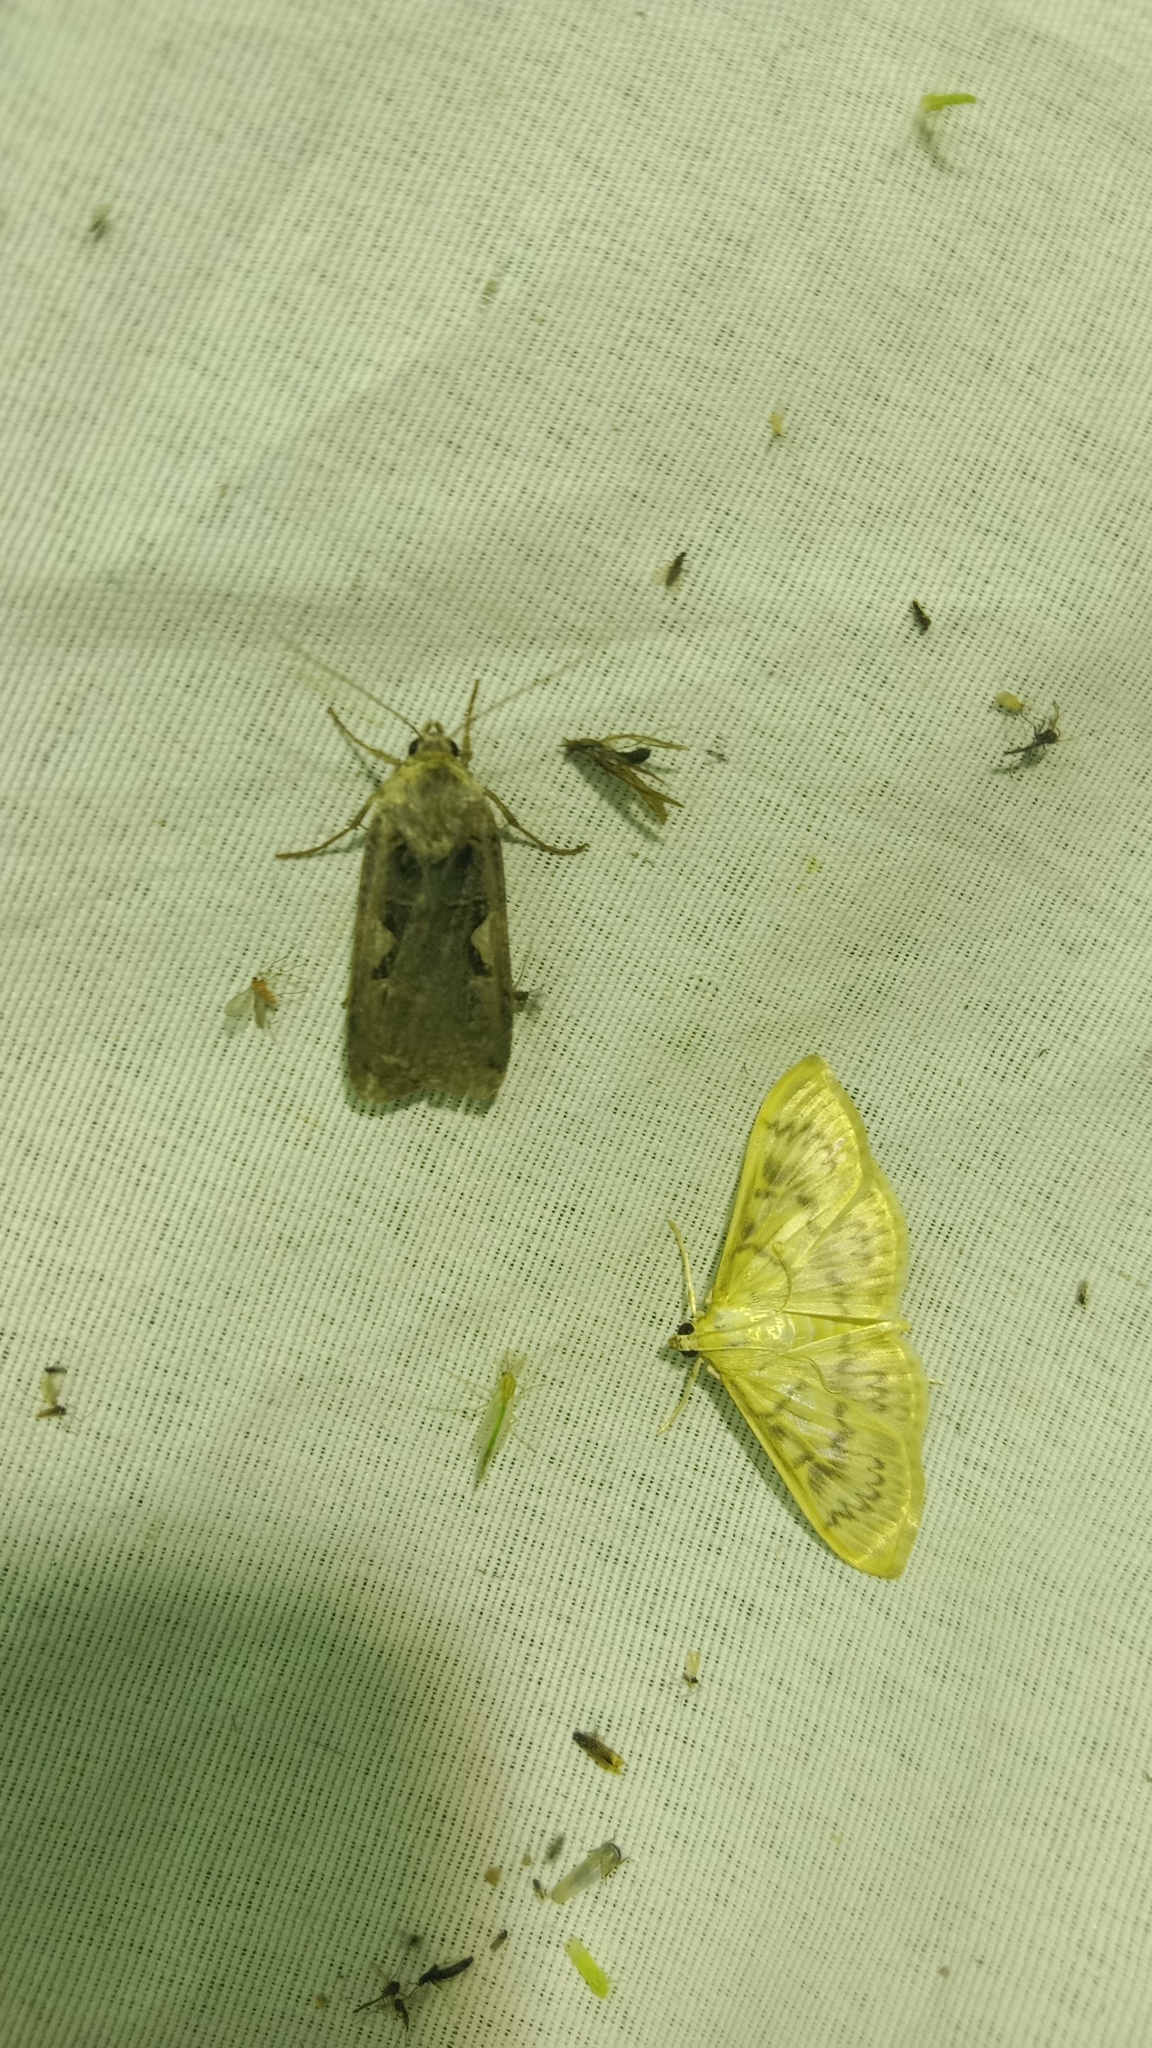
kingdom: Animalia
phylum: Arthropoda
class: Insecta
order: Lepidoptera
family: Noctuidae
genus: Xestia
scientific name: Xestia c-nigrum
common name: Setaceous hebrew character
